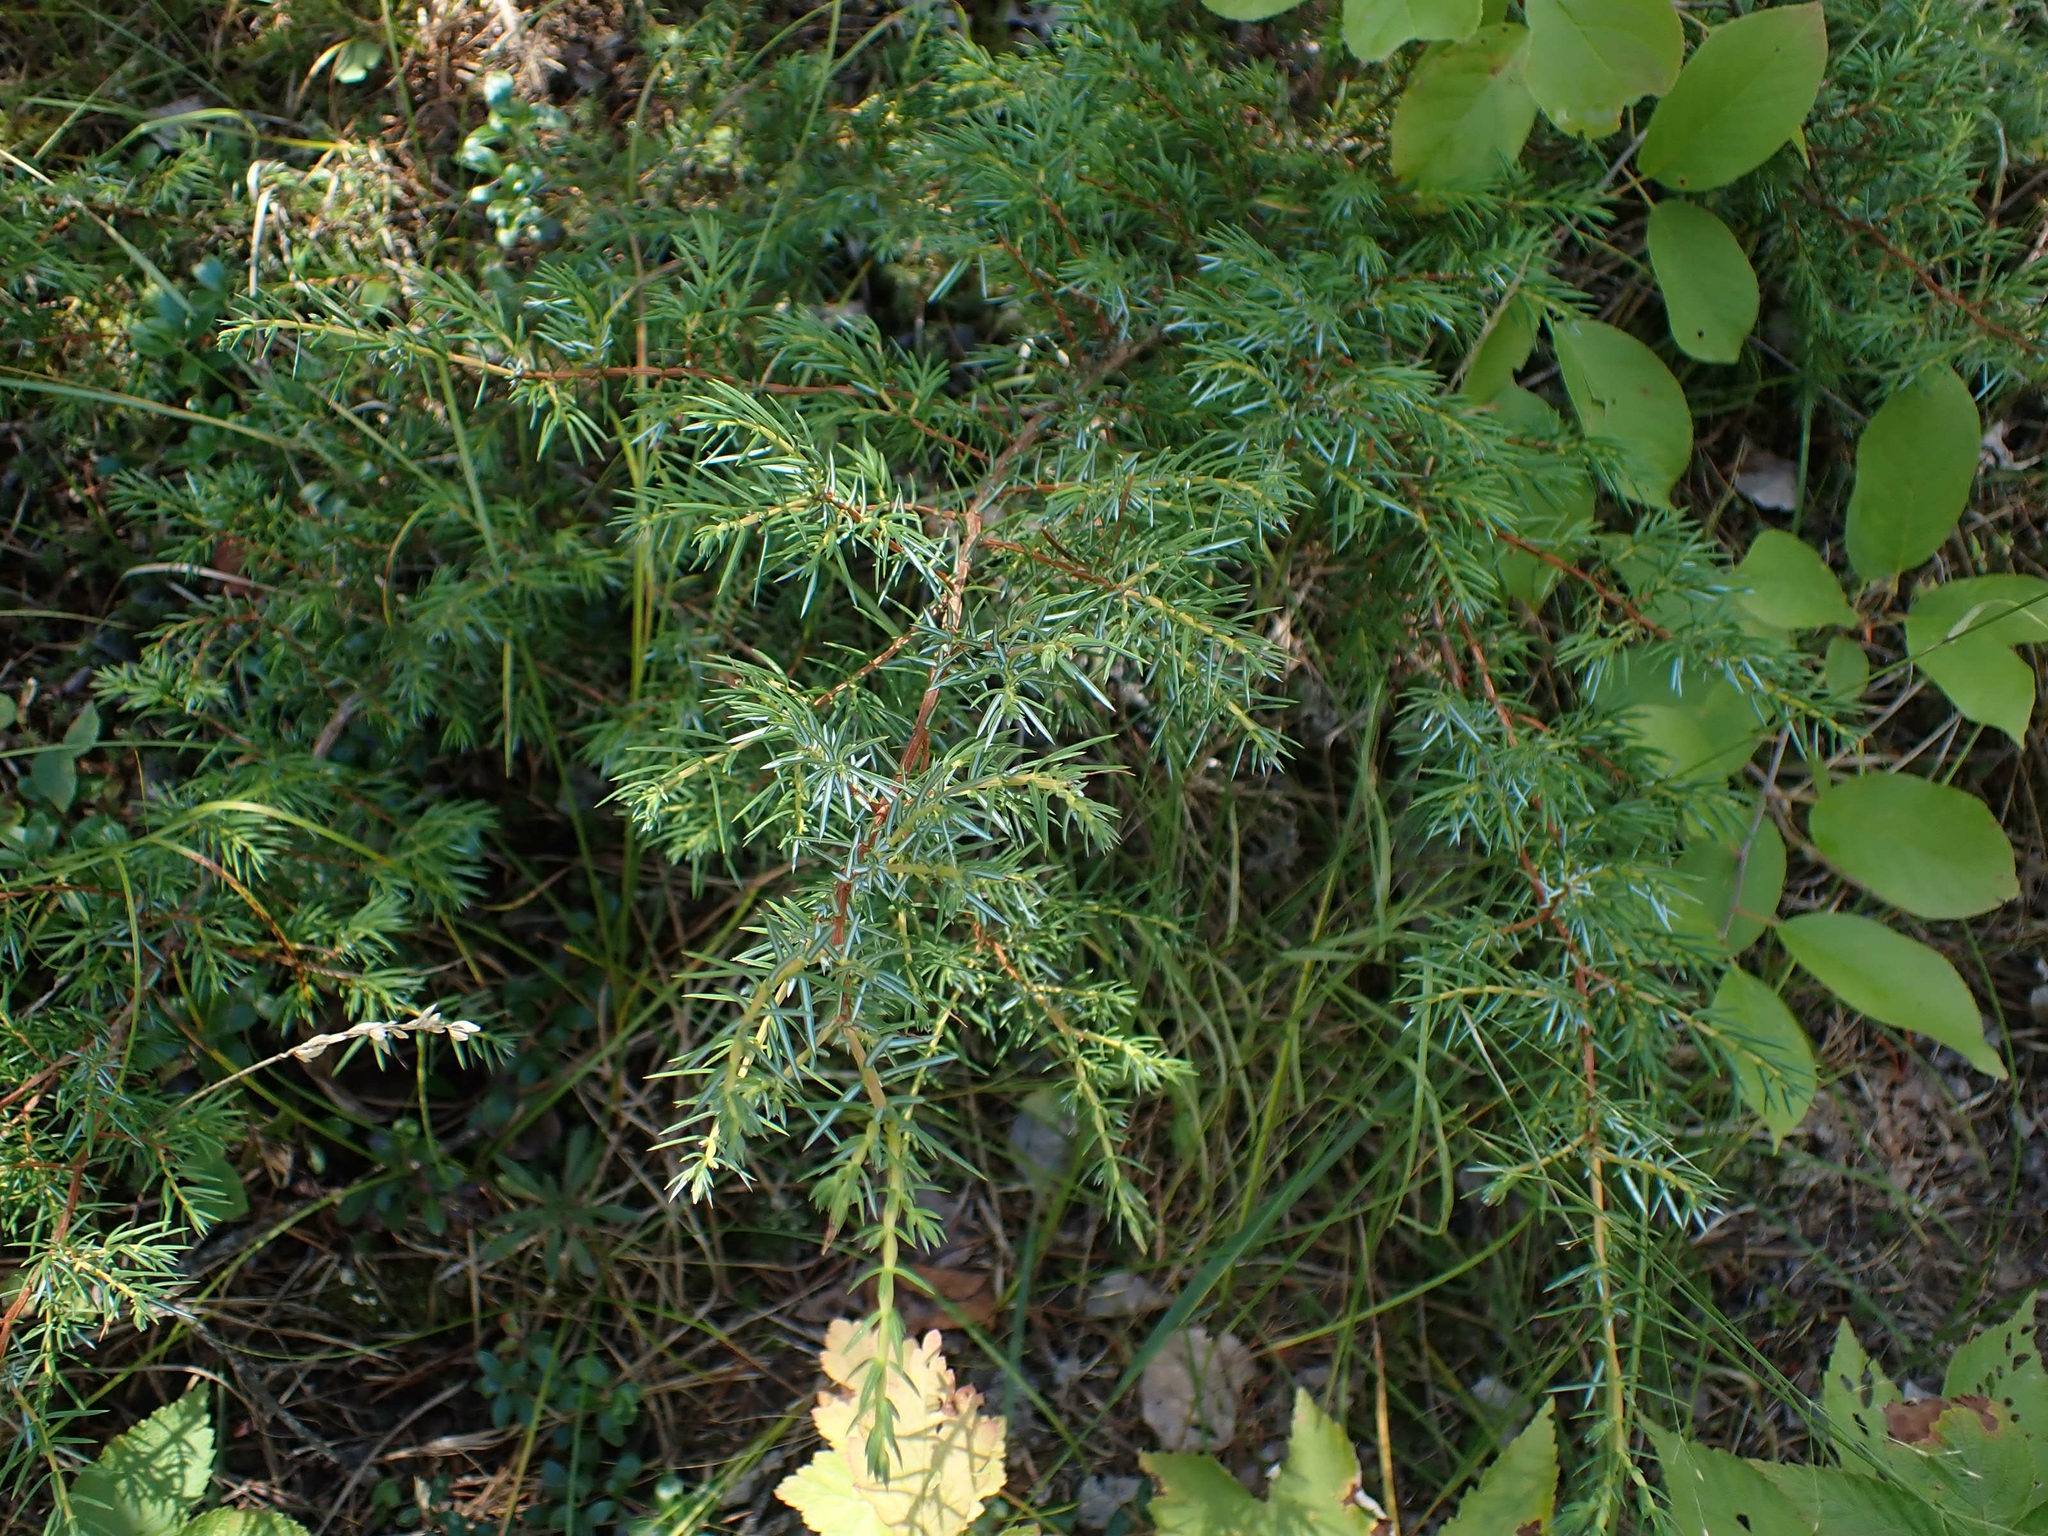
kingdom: Plantae
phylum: Tracheophyta
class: Pinopsida
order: Pinales
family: Cupressaceae
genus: Juniperus
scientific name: Juniperus communis
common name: Common juniper
